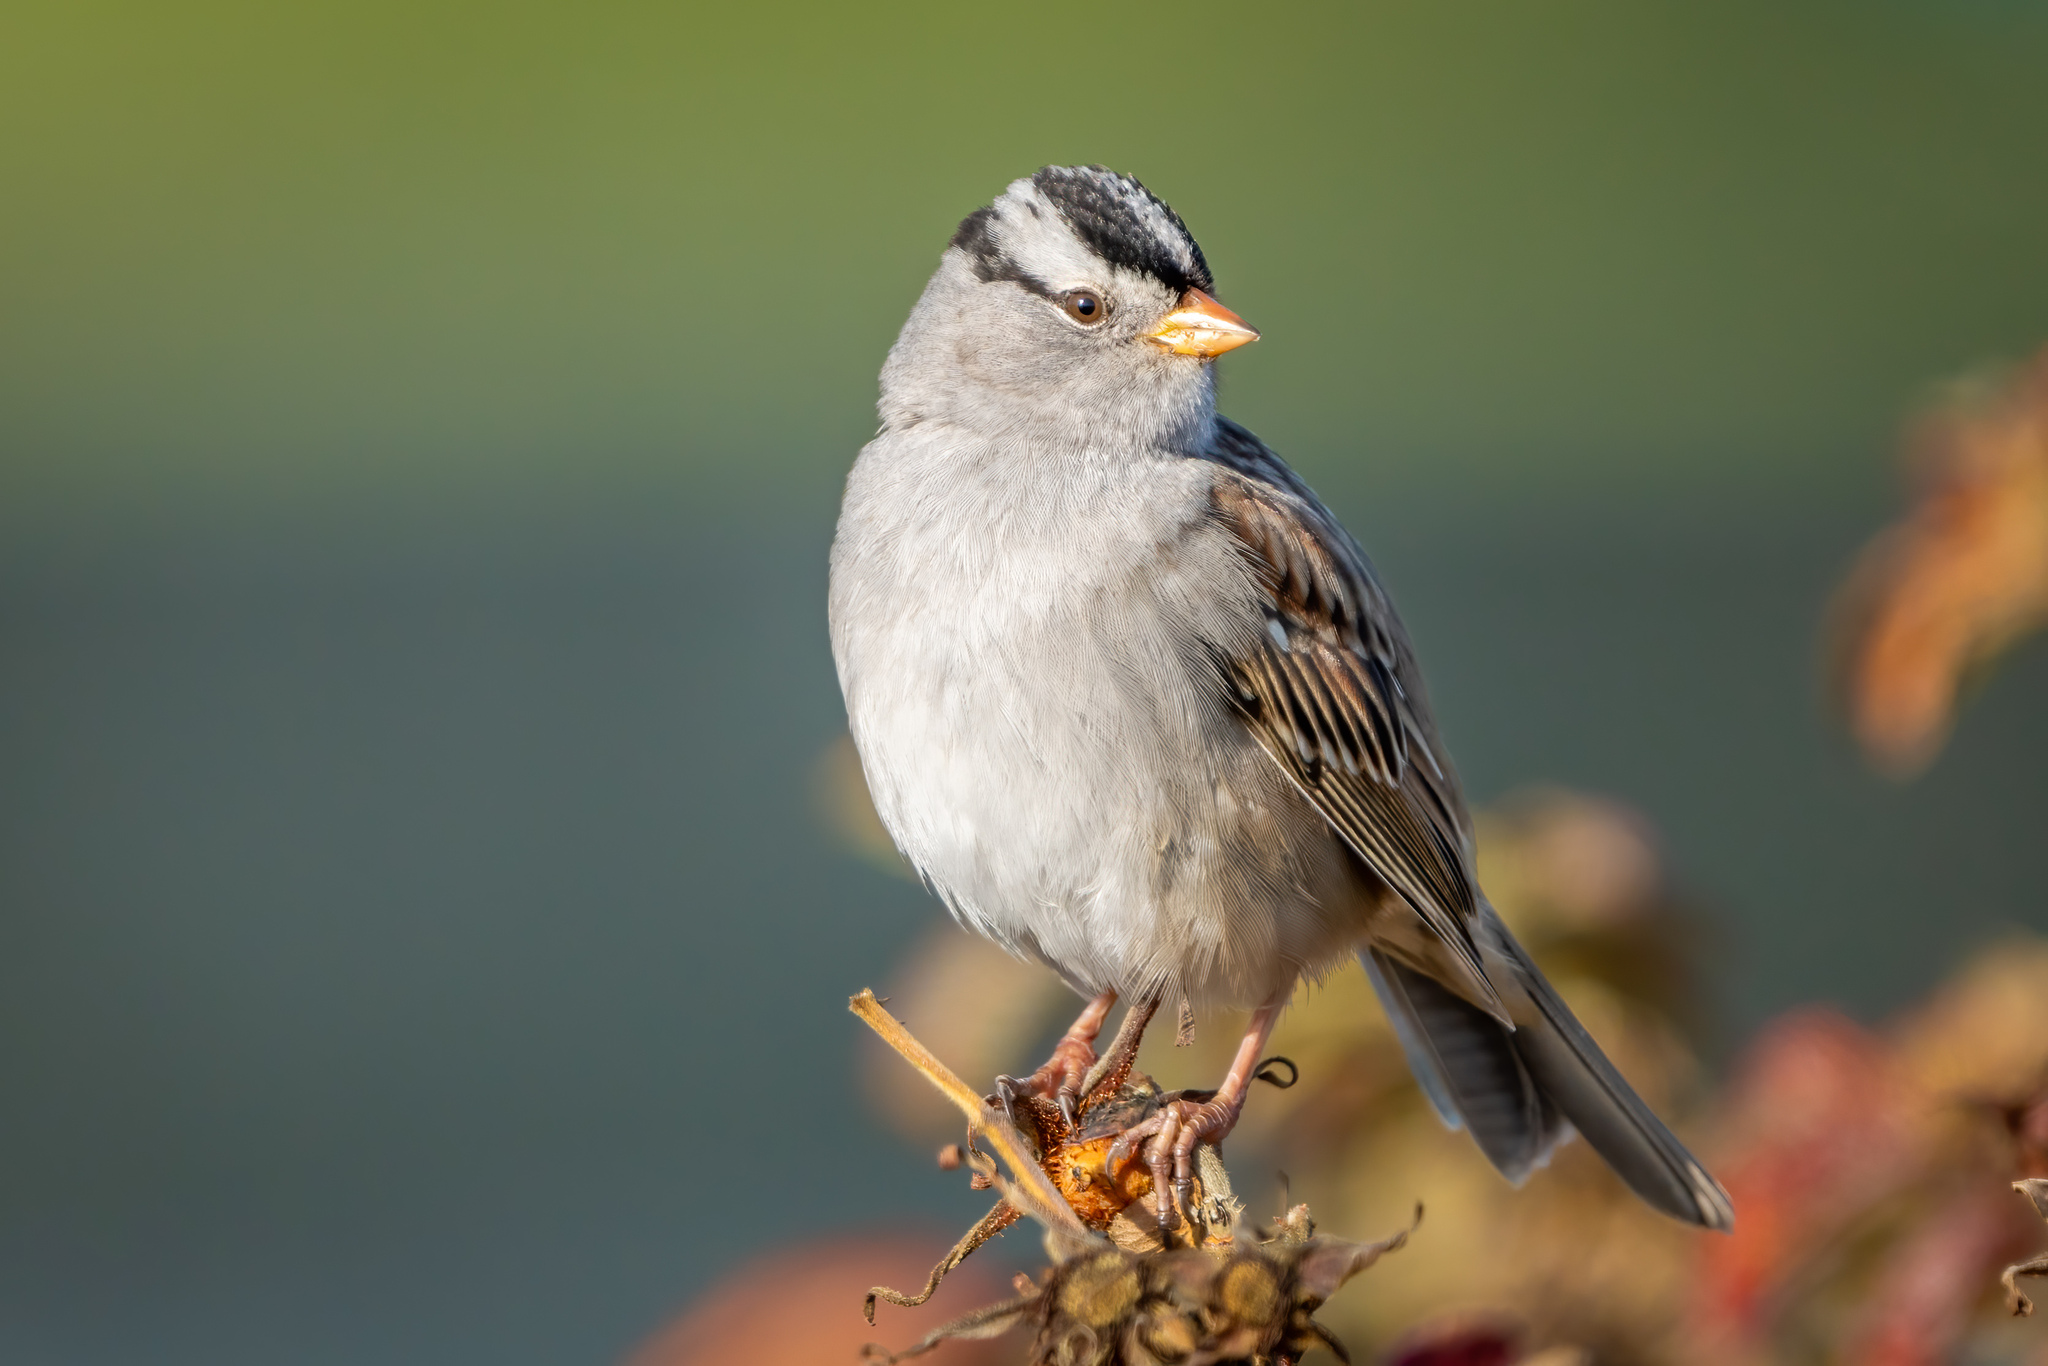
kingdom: Animalia
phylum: Chordata
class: Aves
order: Passeriformes
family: Passerellidae
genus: Zonotrichia
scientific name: Zonotrichia leucophrys
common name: White-crowned sparrow
